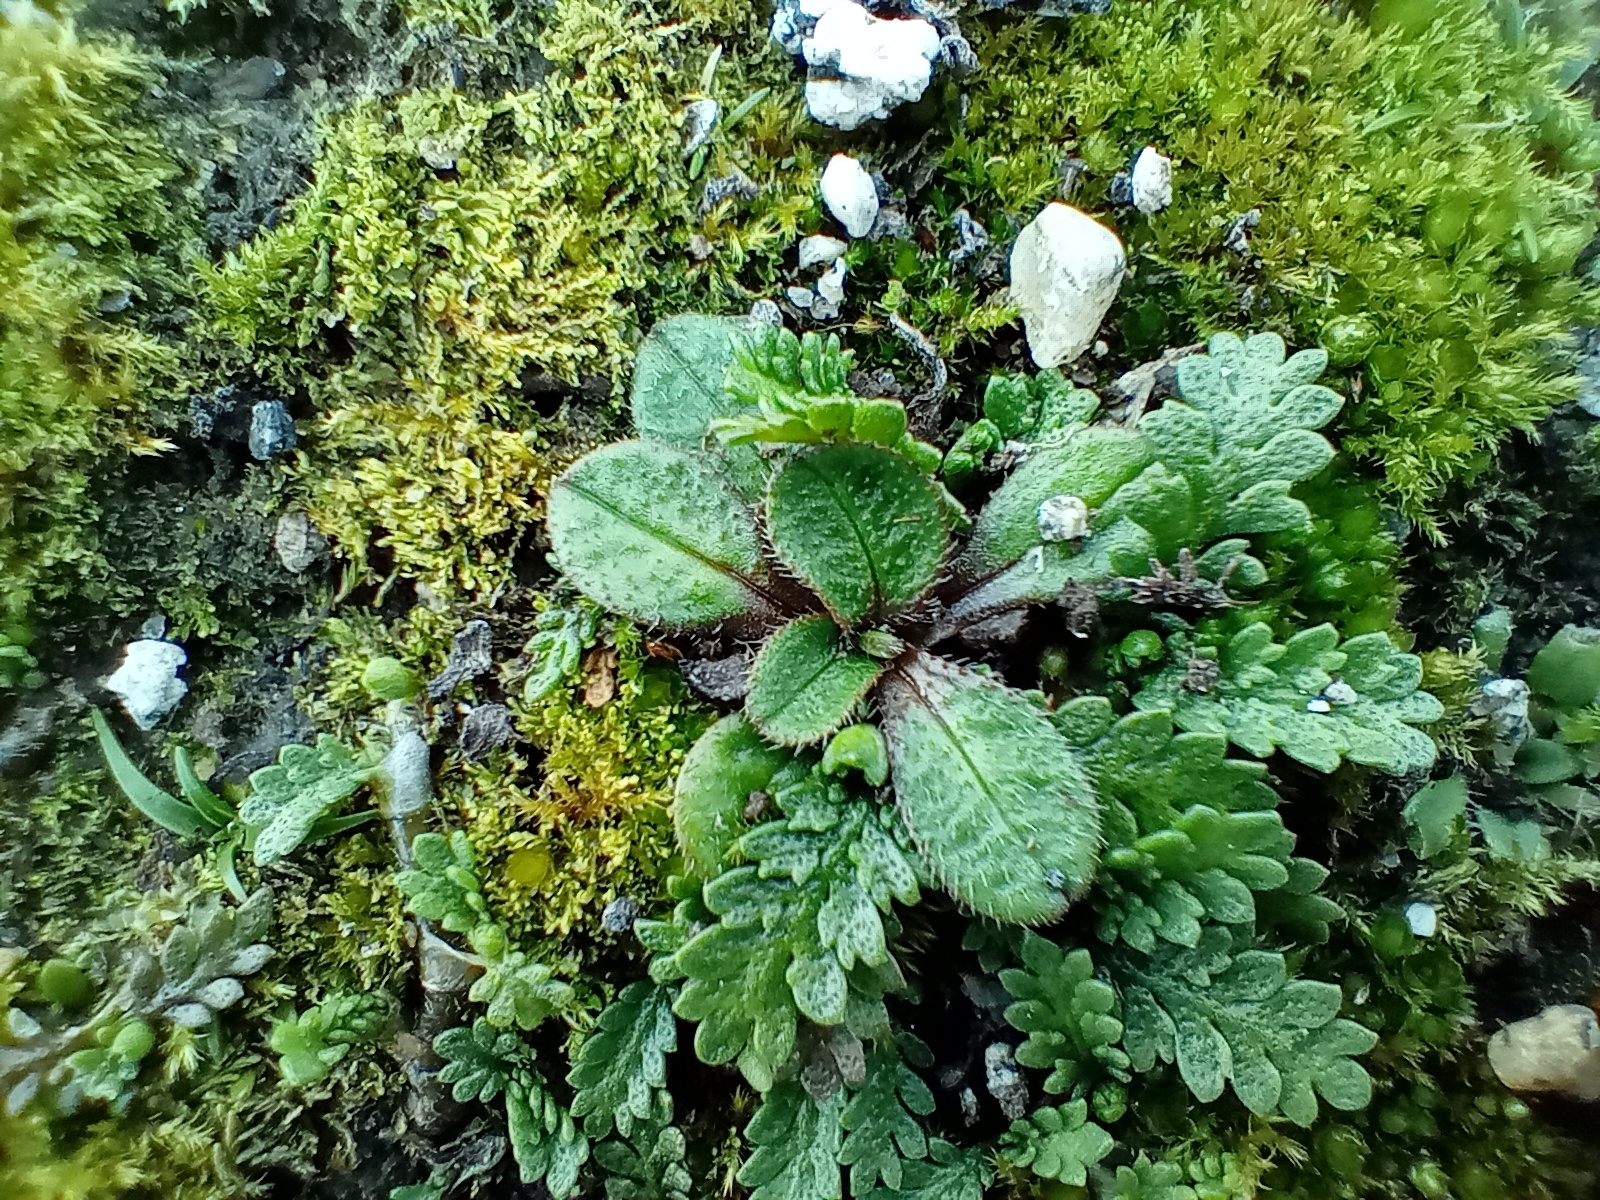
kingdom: Plantae
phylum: Tracheophyta
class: Magnoliopsida
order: Boraginales
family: Boraginaceae
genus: Myosotis
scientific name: Myosotis antarctica
